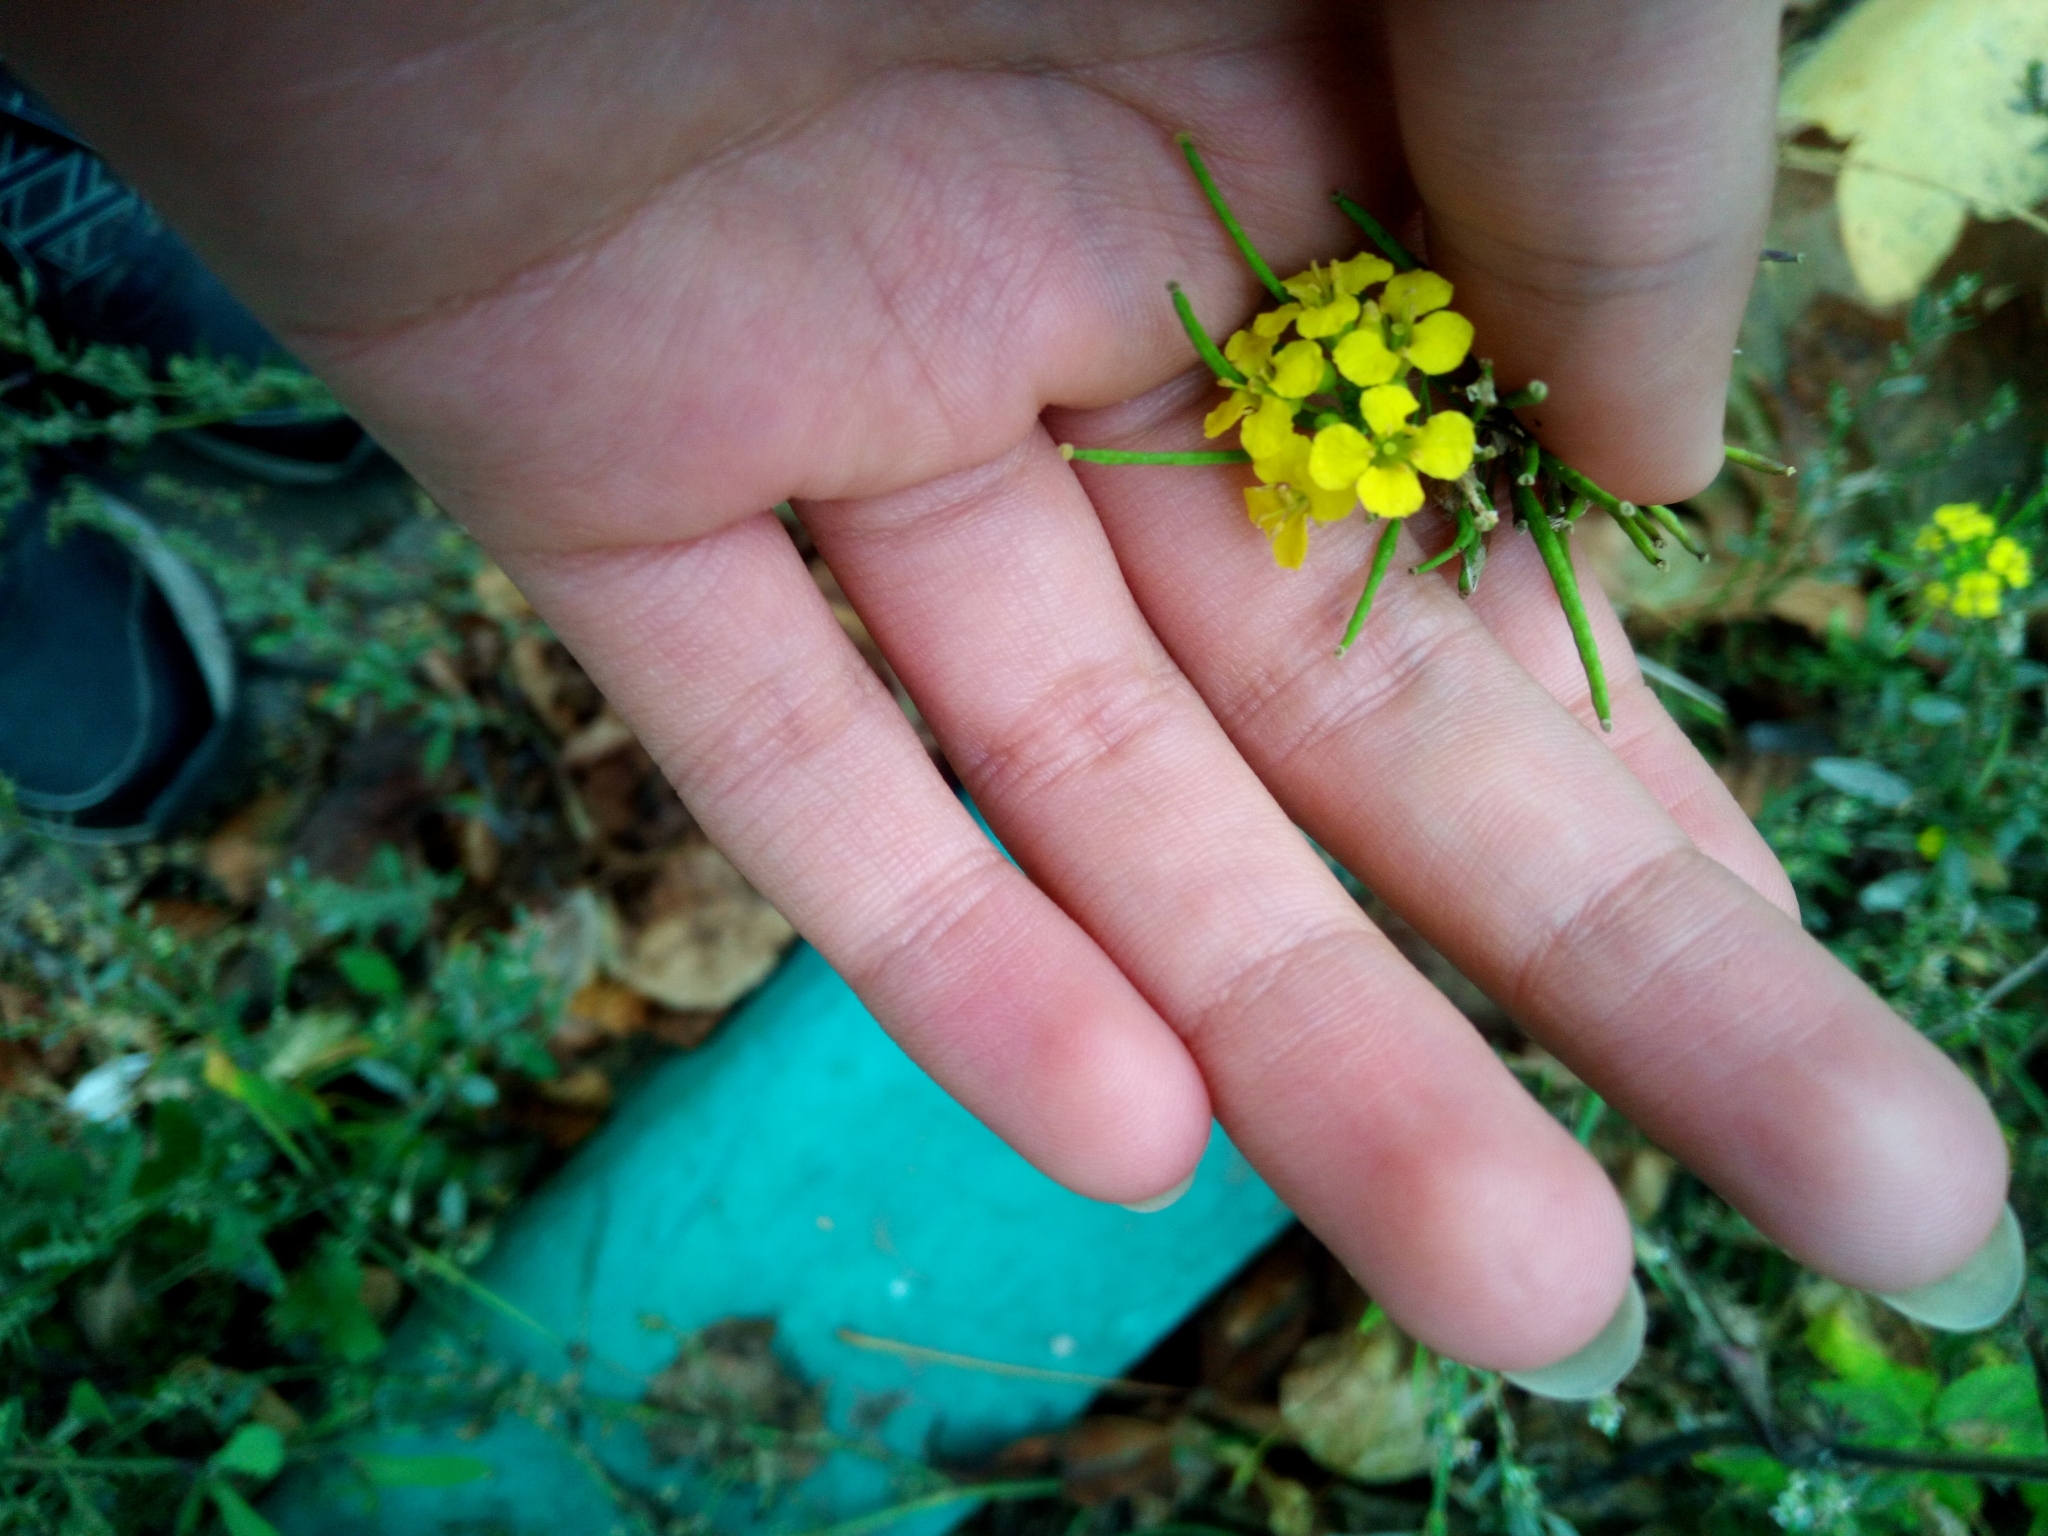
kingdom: Plantae
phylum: Tracheophyta
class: Magnoliopsida
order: Brassicales
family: Brassicaceae
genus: Sisymbrium
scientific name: Sisymbrium loeselii
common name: False london-rocket
